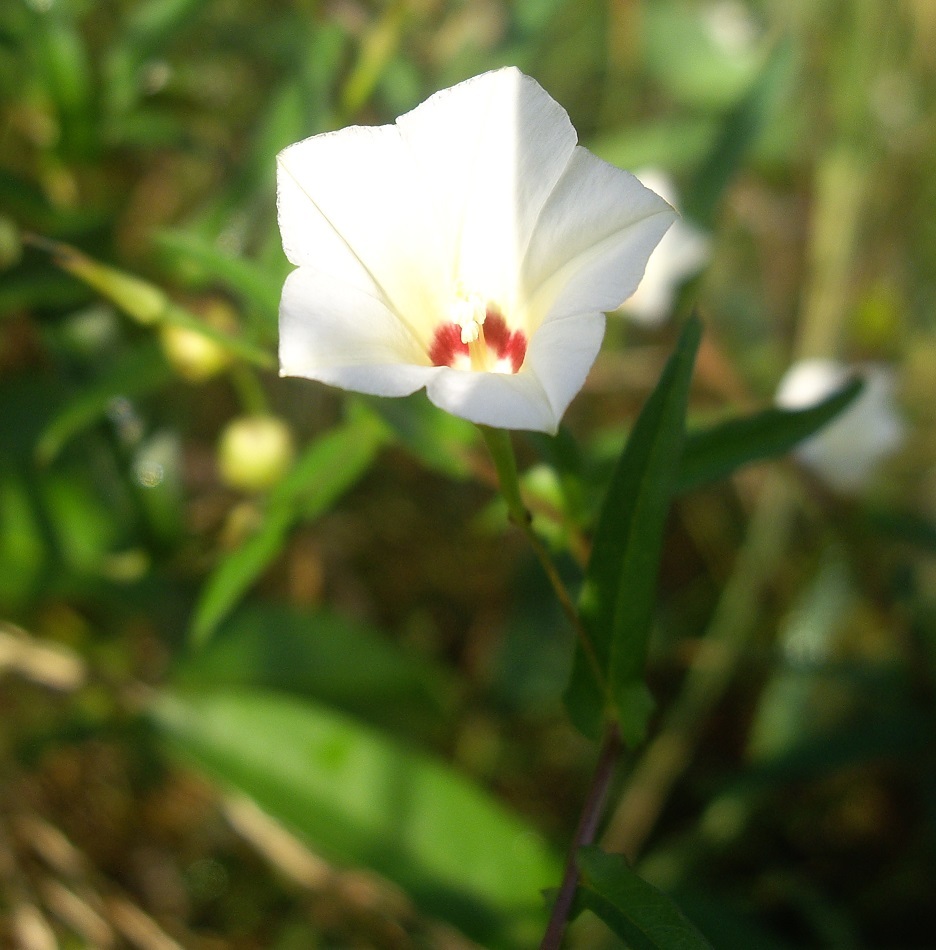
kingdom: Plantae
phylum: Tracheophyta
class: Magnoliopsida
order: Solanales
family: Convolvulaceae
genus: Xenostegia
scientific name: Xenostegia tridentata
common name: African morningvine
